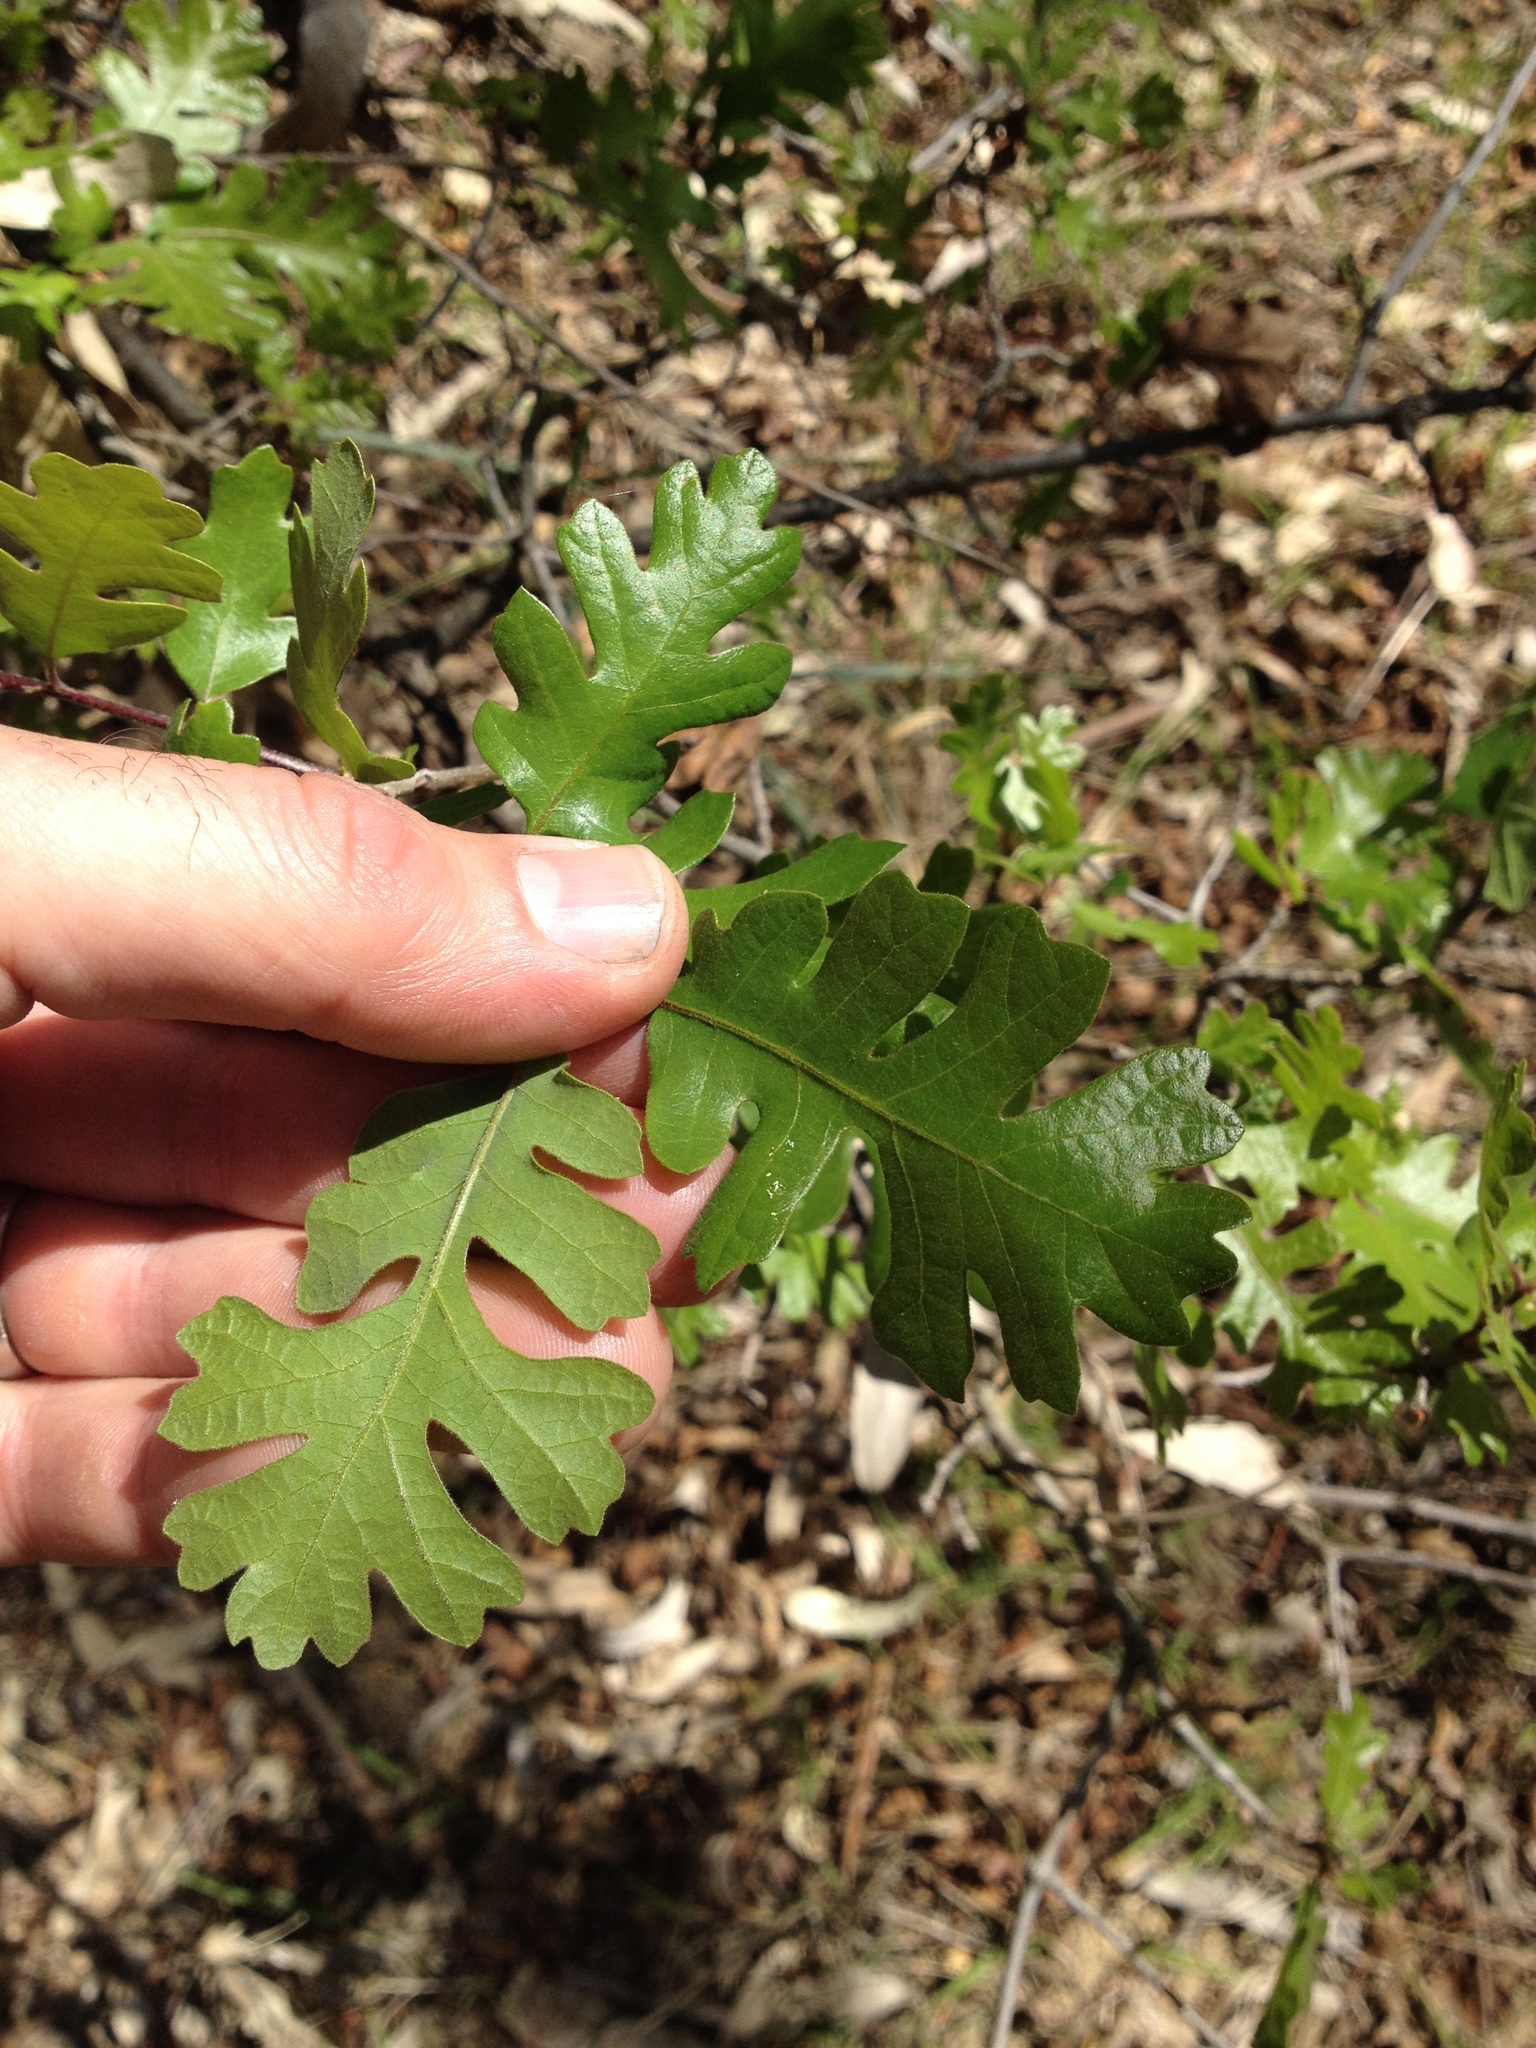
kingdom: Plantae
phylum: Tracheophyta
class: Magnoliopsida
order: Fagales
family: Fagaceae
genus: Quercus
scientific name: Quercus lobata
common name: Valley oak
